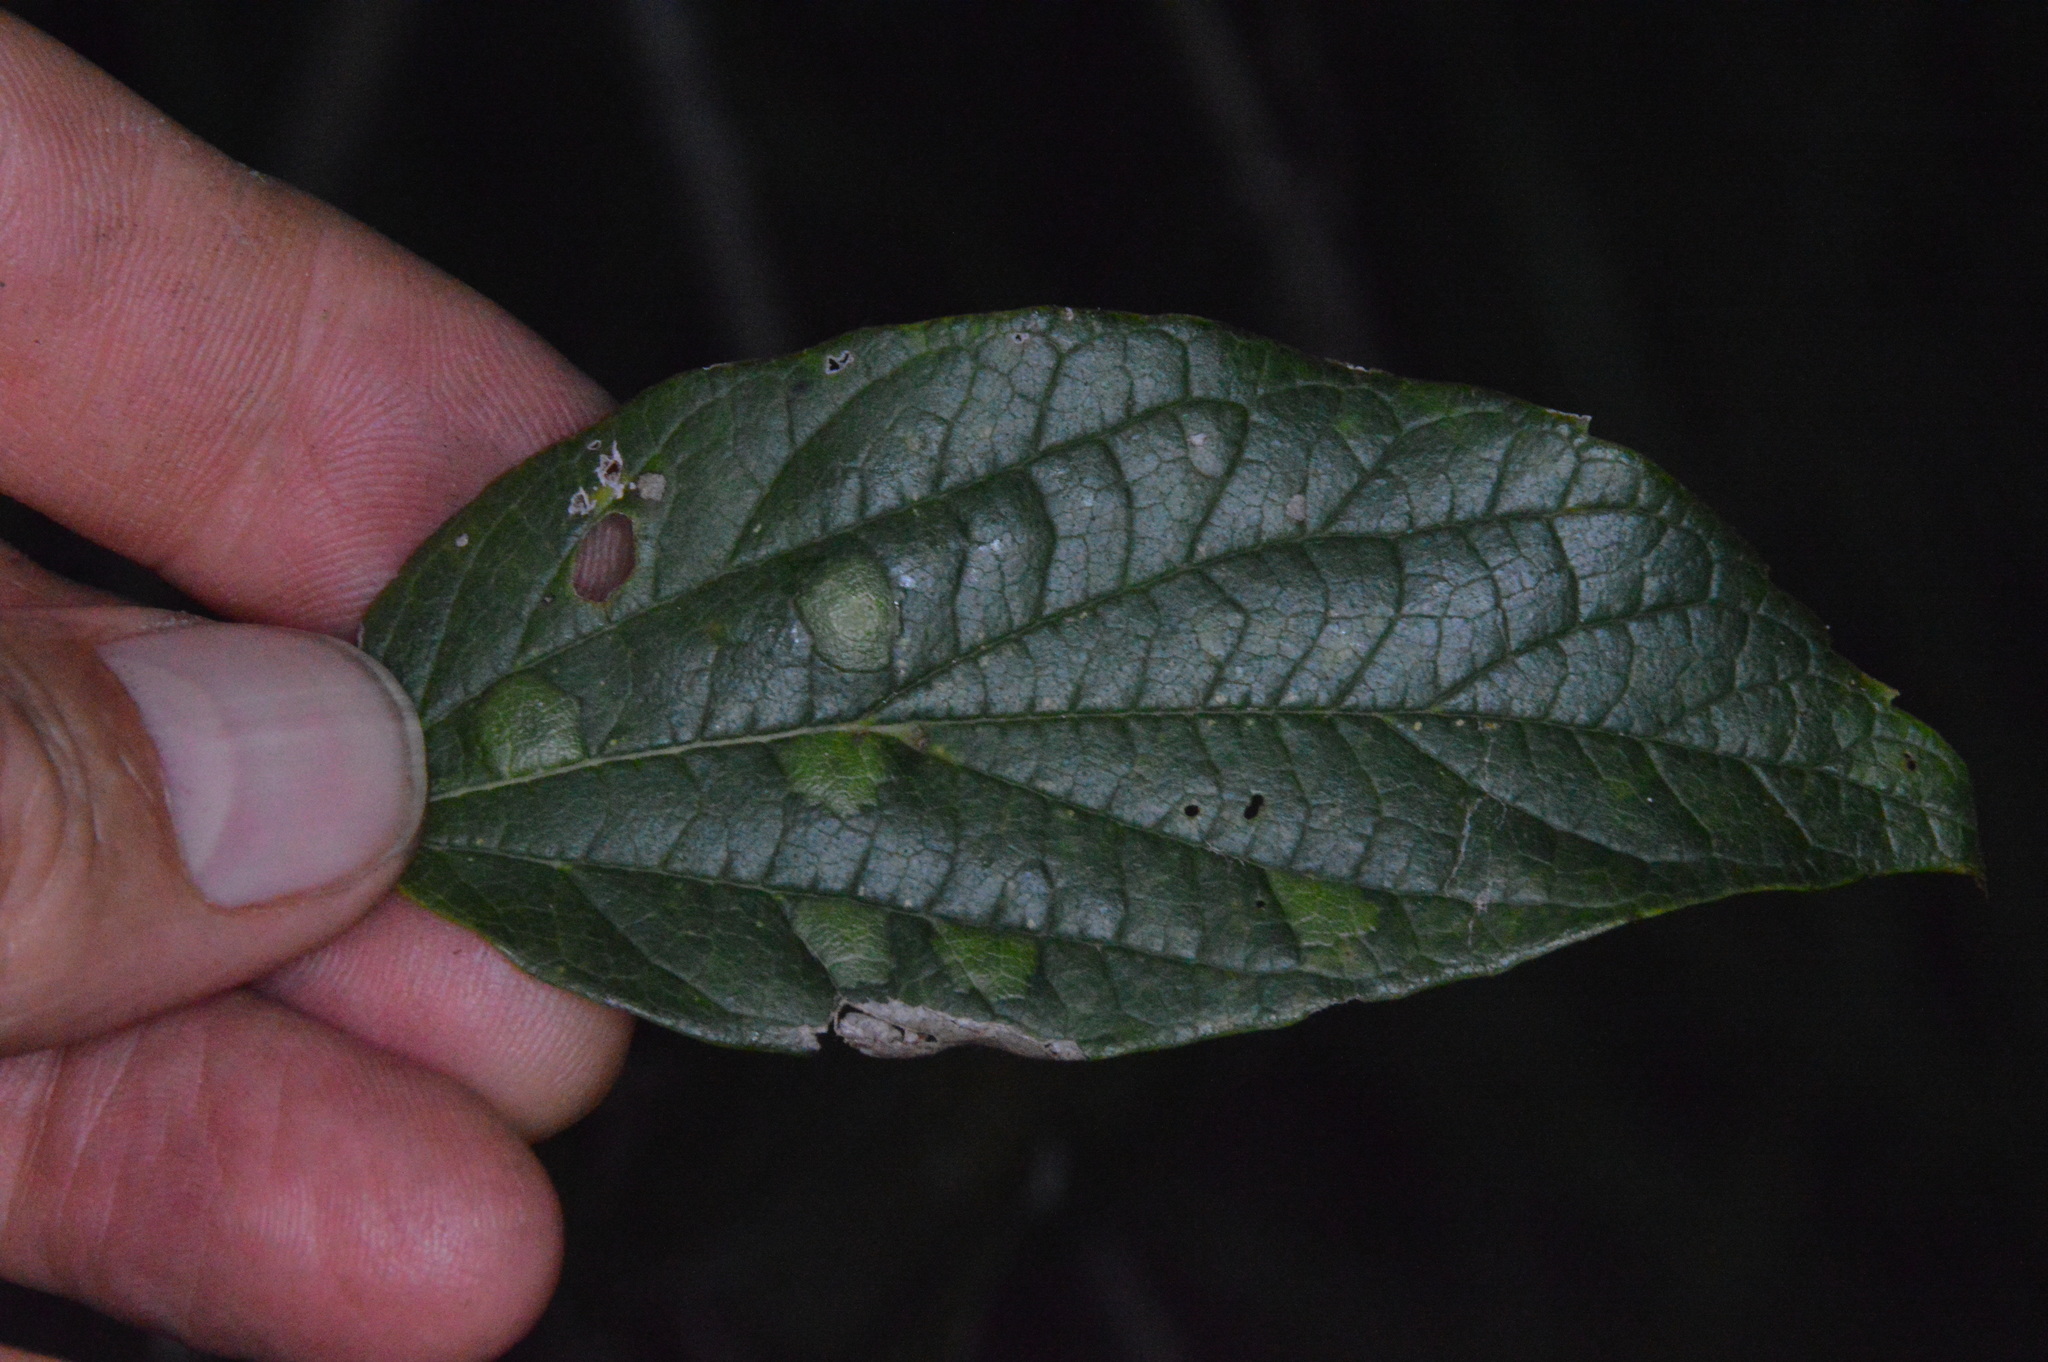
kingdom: Animalia
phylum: Arthropoda
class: Insecta
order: Hemiptera
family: Aphalaridae
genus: Pachypsylla
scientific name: Pachypsylla celtidisvesicula
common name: Hackberry blister gall psyllid
